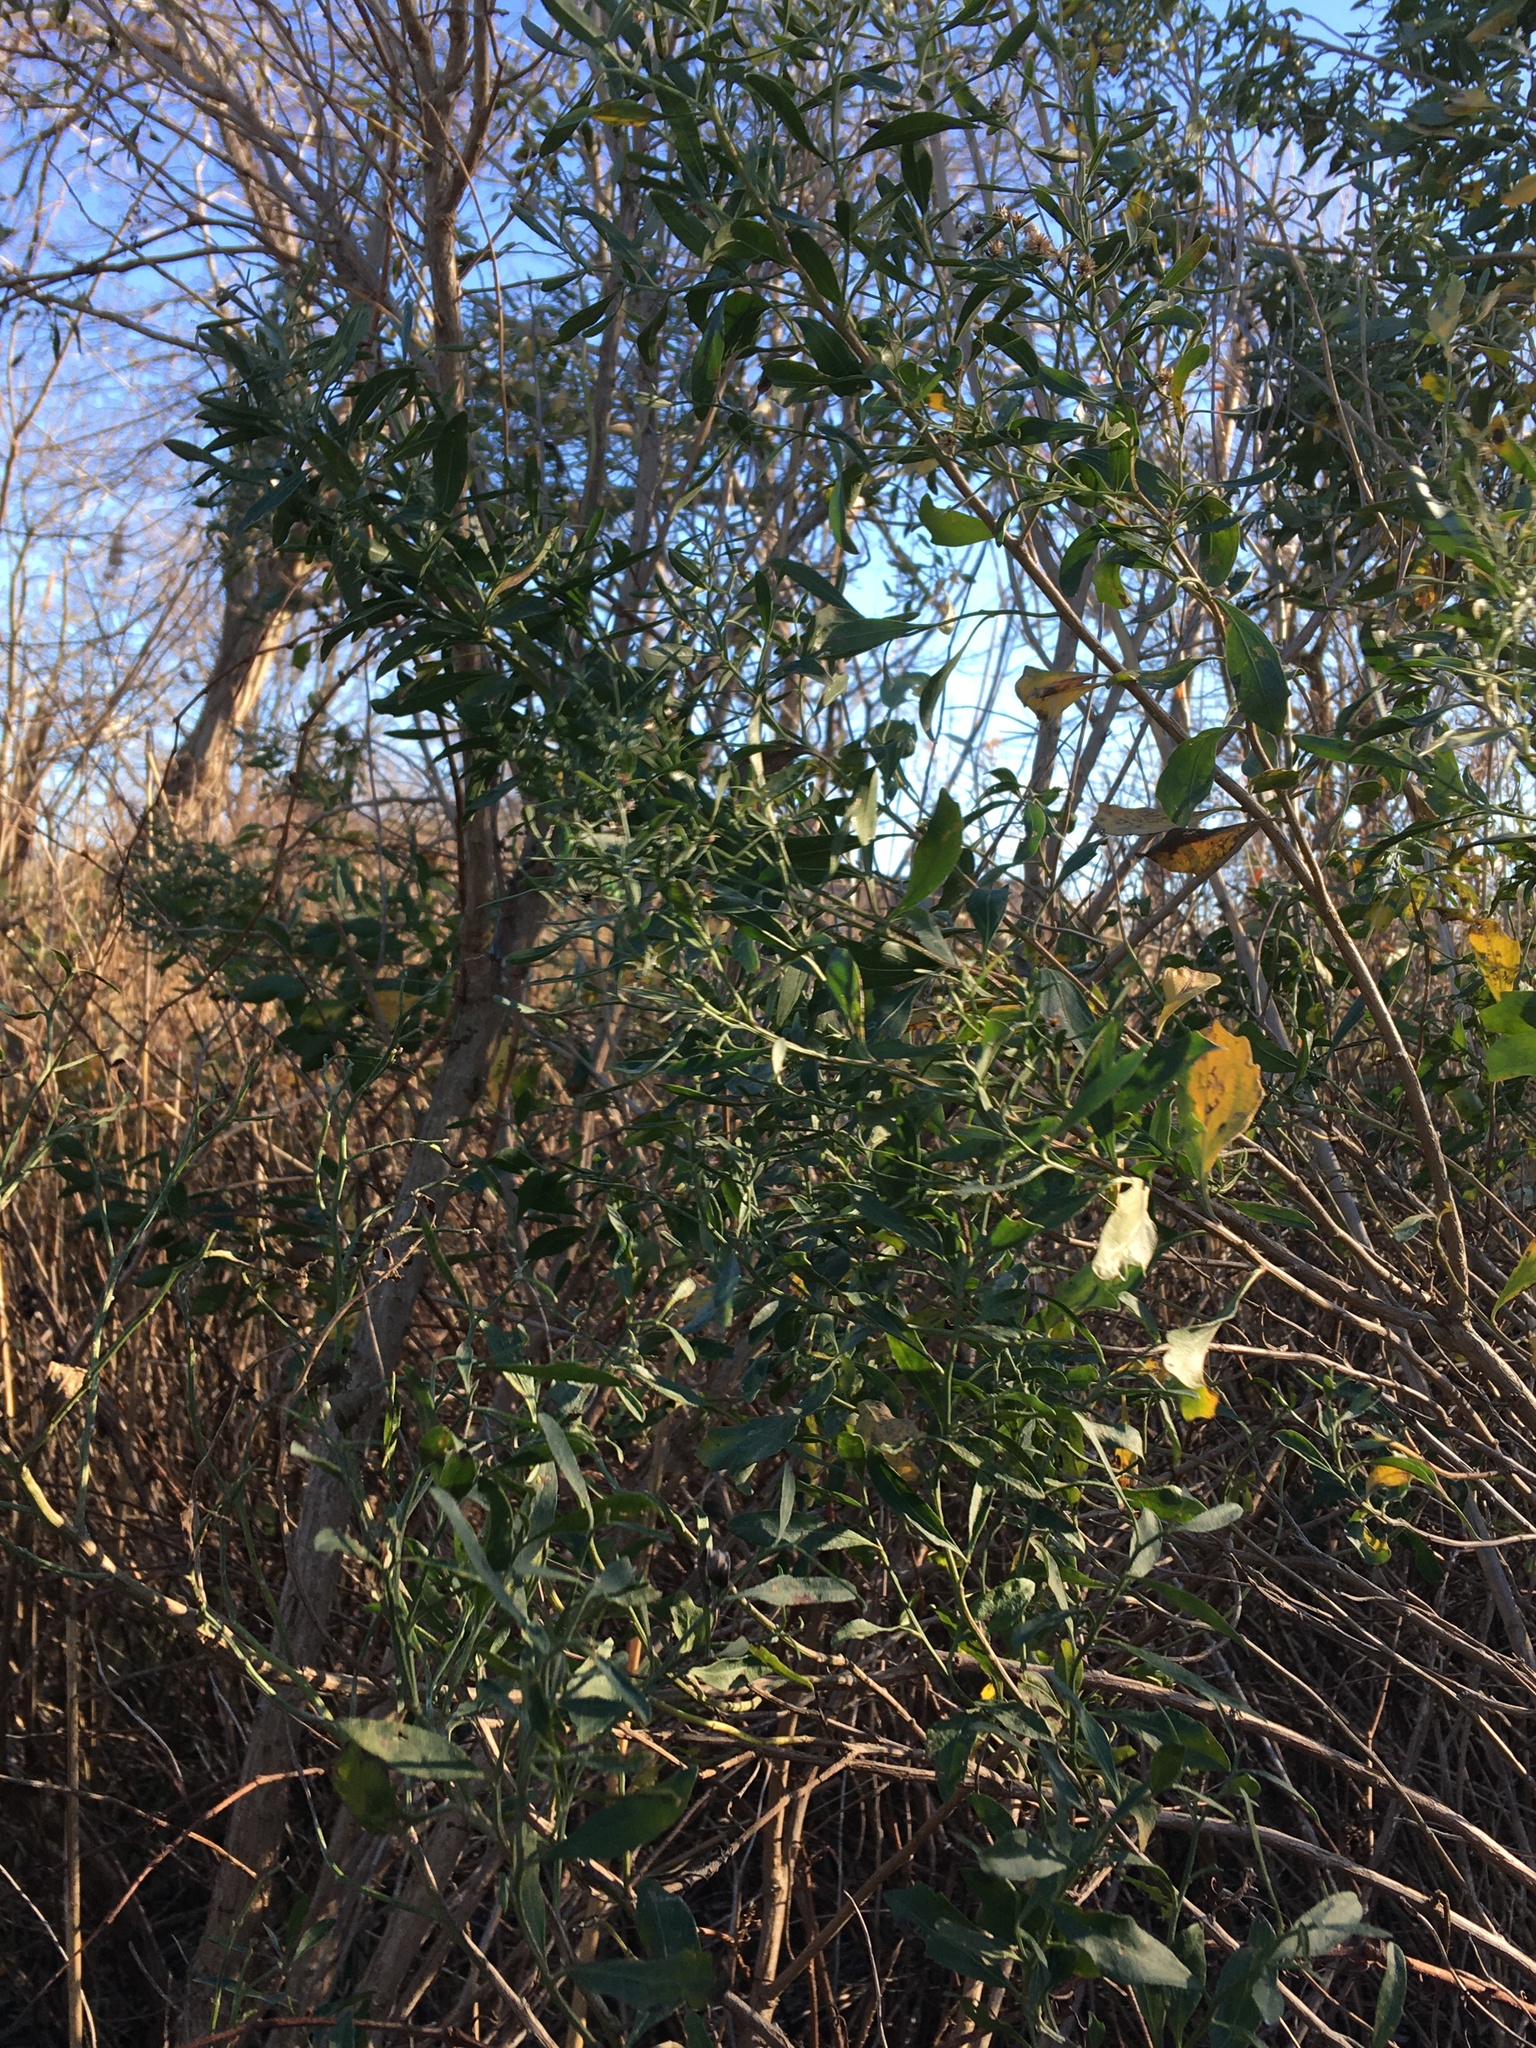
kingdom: Plantae
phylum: Tracheophyta
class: Magnoliopsida
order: Asterales
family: Asteraceae
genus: Baccharis
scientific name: Baccharis halimifolia
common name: Eastern baccharis
